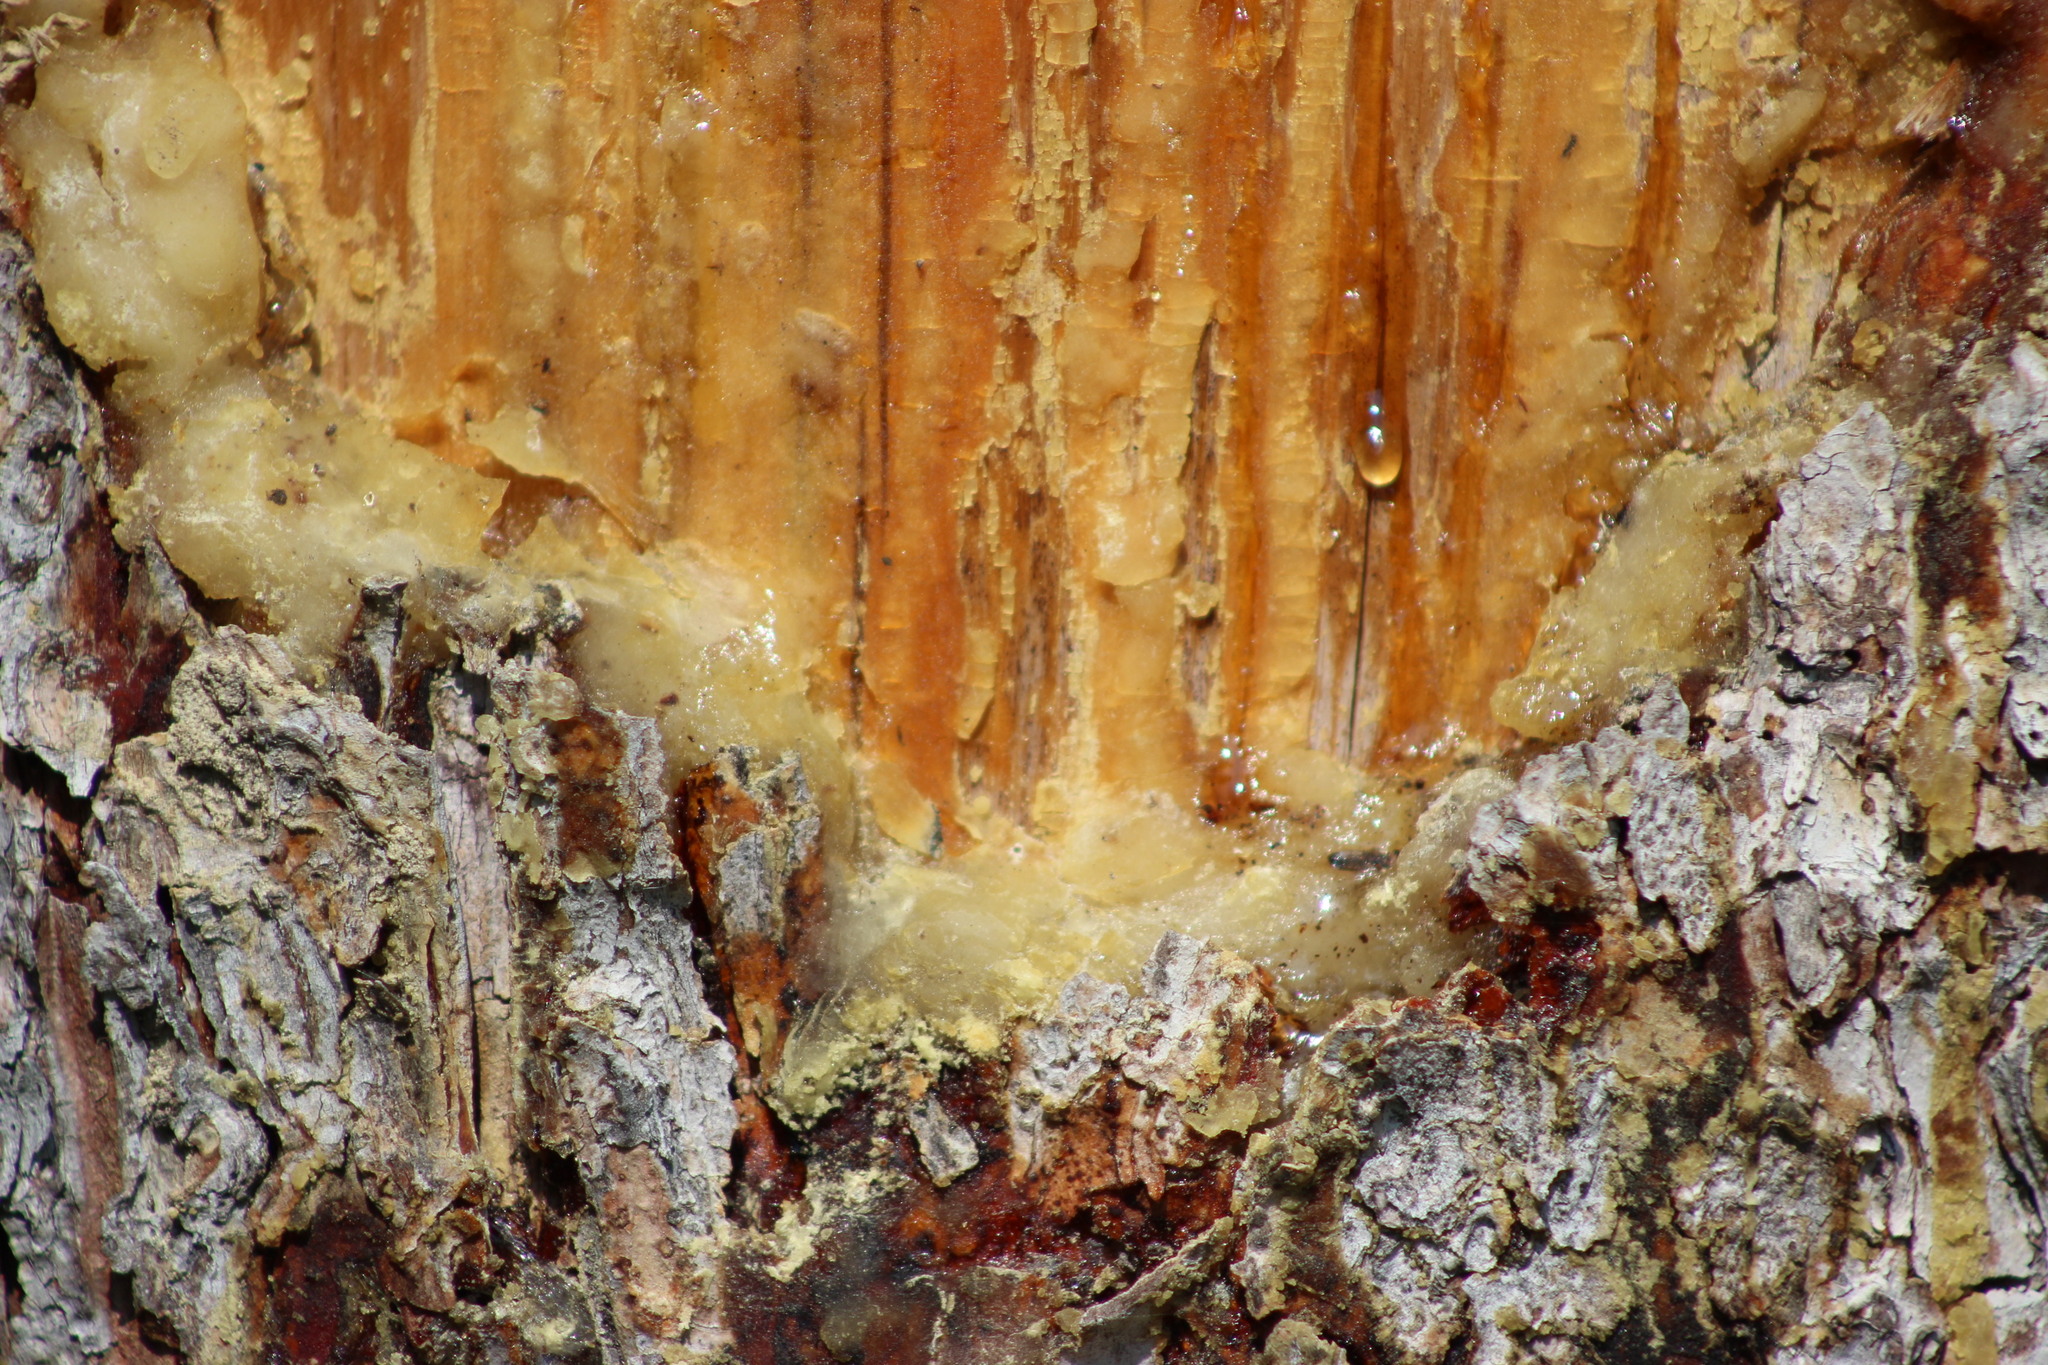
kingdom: Plantae
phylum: Tracheophyta
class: Pinopsida
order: Pinales
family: Pinaceae
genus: Pinus
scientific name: Pinus sylvestris
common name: Scots pine
